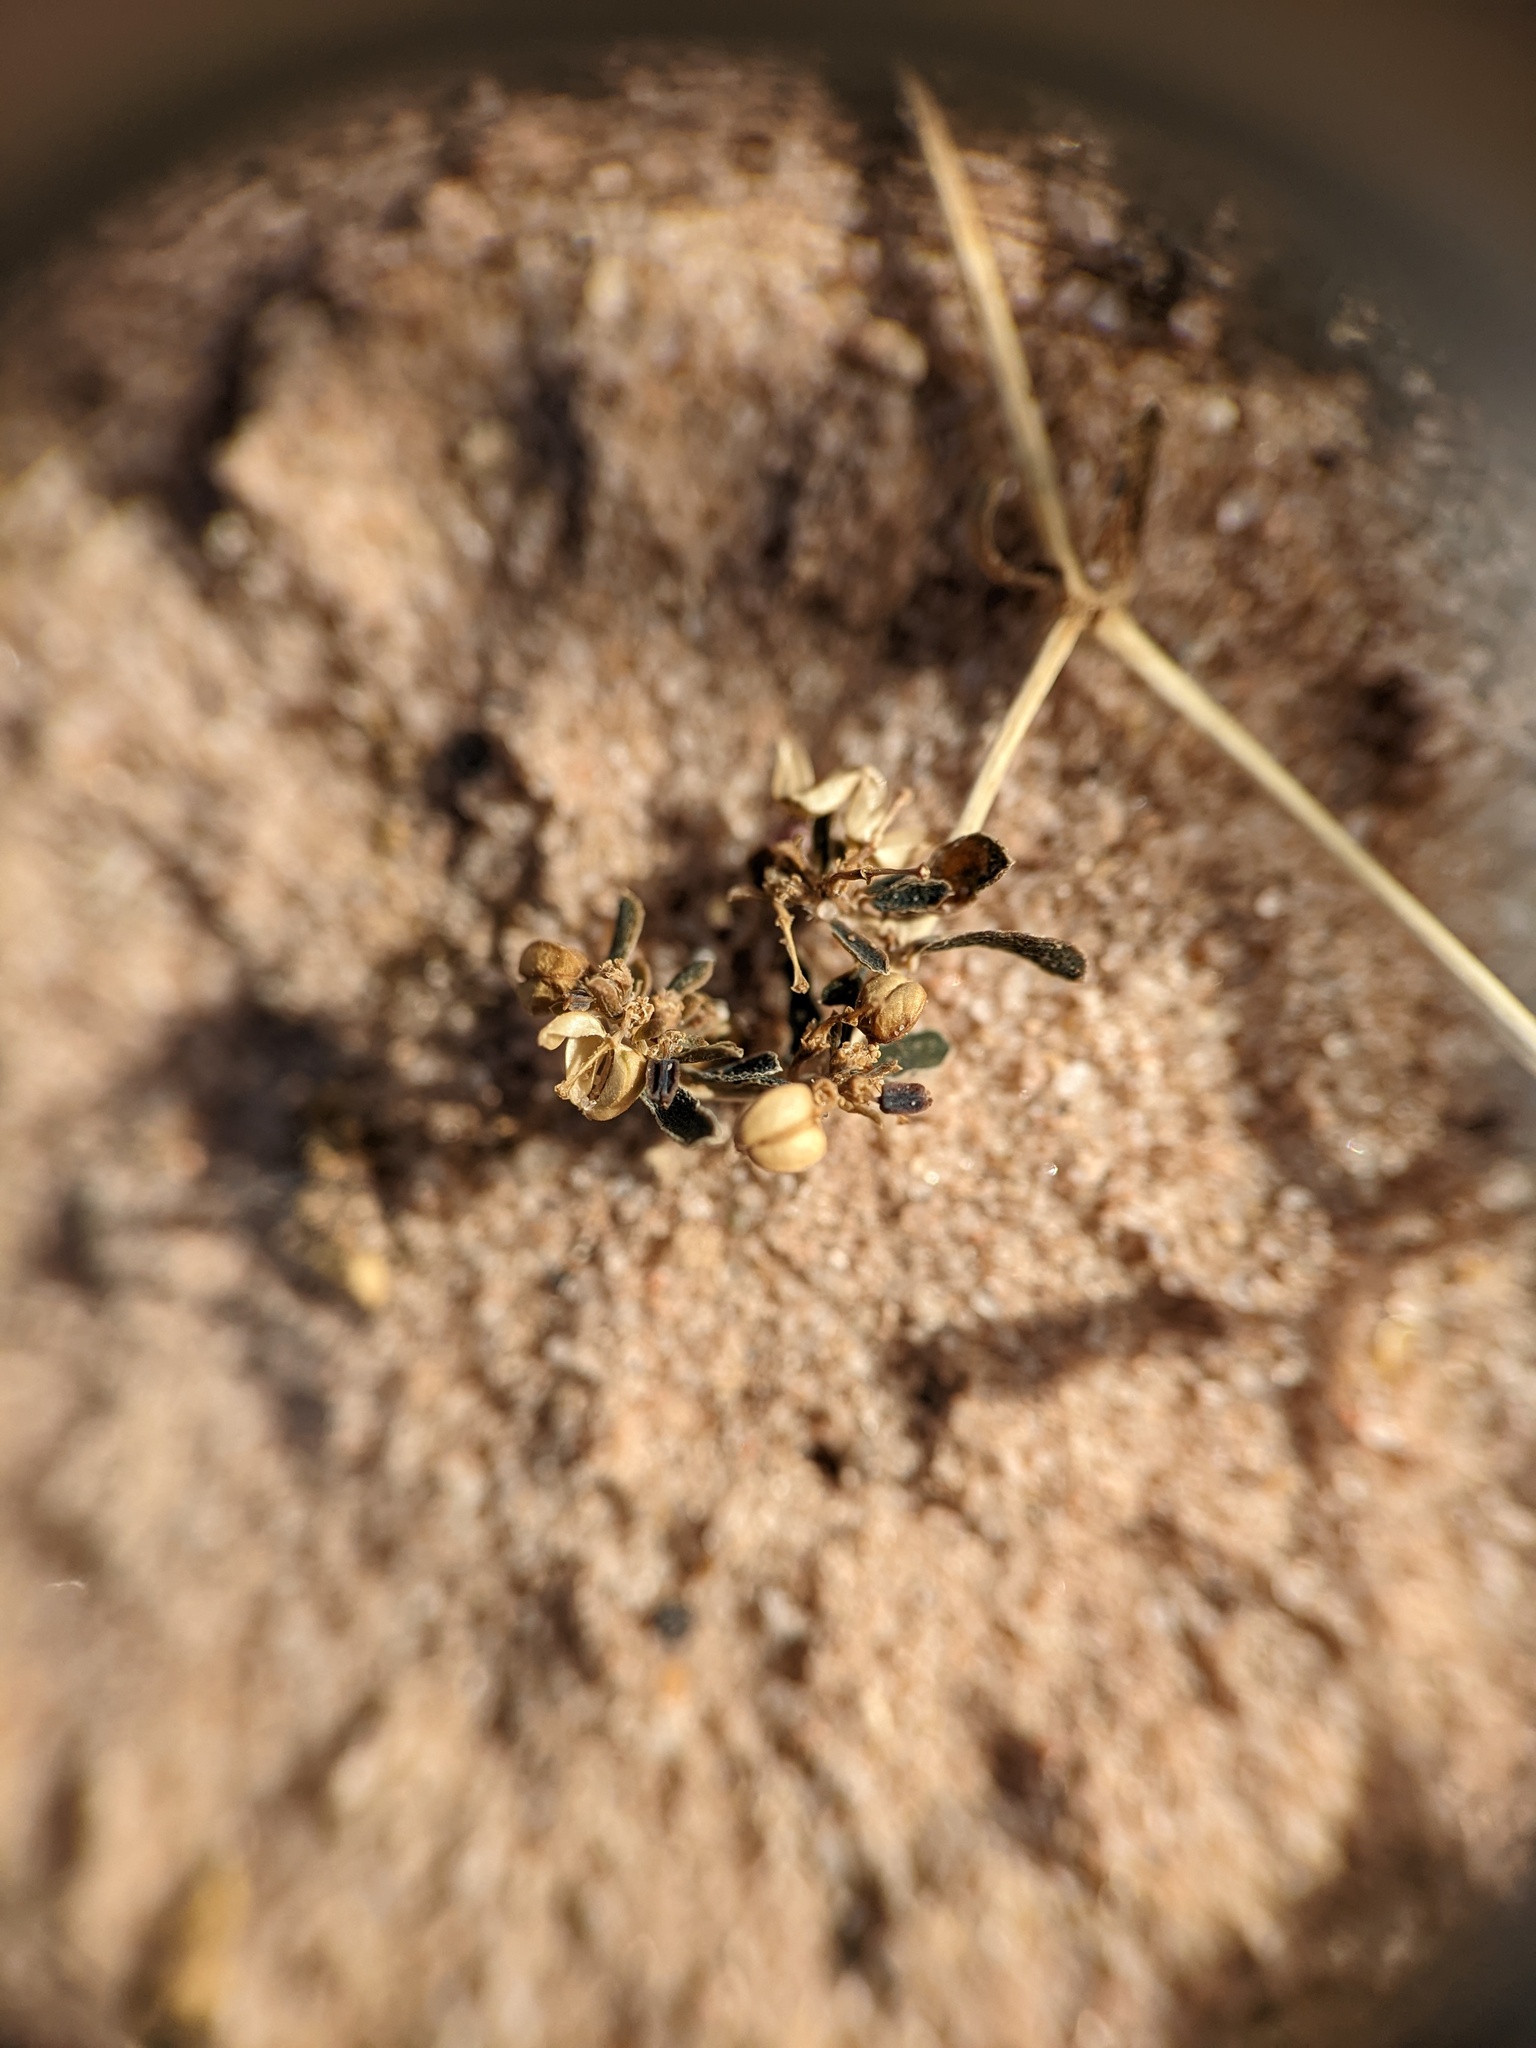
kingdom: Plantae
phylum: Tracheophyta
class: Magnoliopsida
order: Malpighiales
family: Euphorbiaceae
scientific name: Euphorbiaceae
